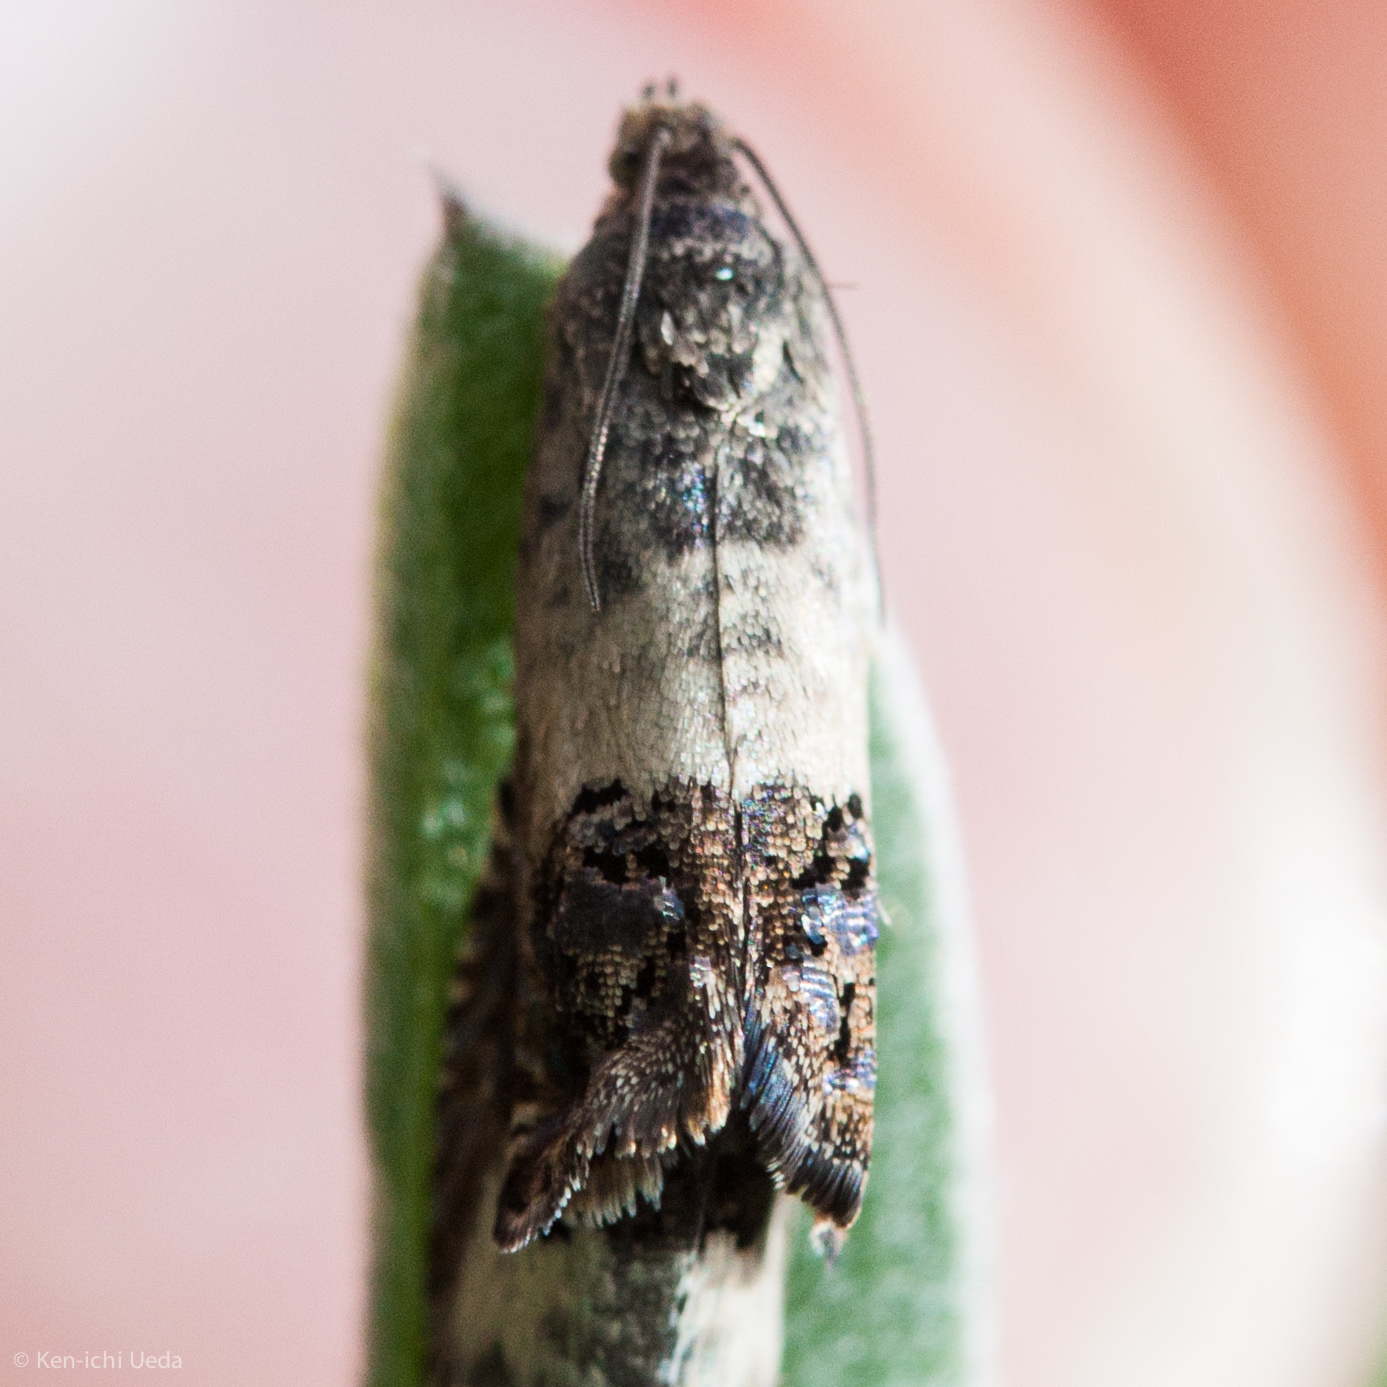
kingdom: Animalia
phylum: Arthropoda
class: Insecta
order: Lepidoptera
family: Tortricidae
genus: Cydia
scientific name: Cydia prosperana
